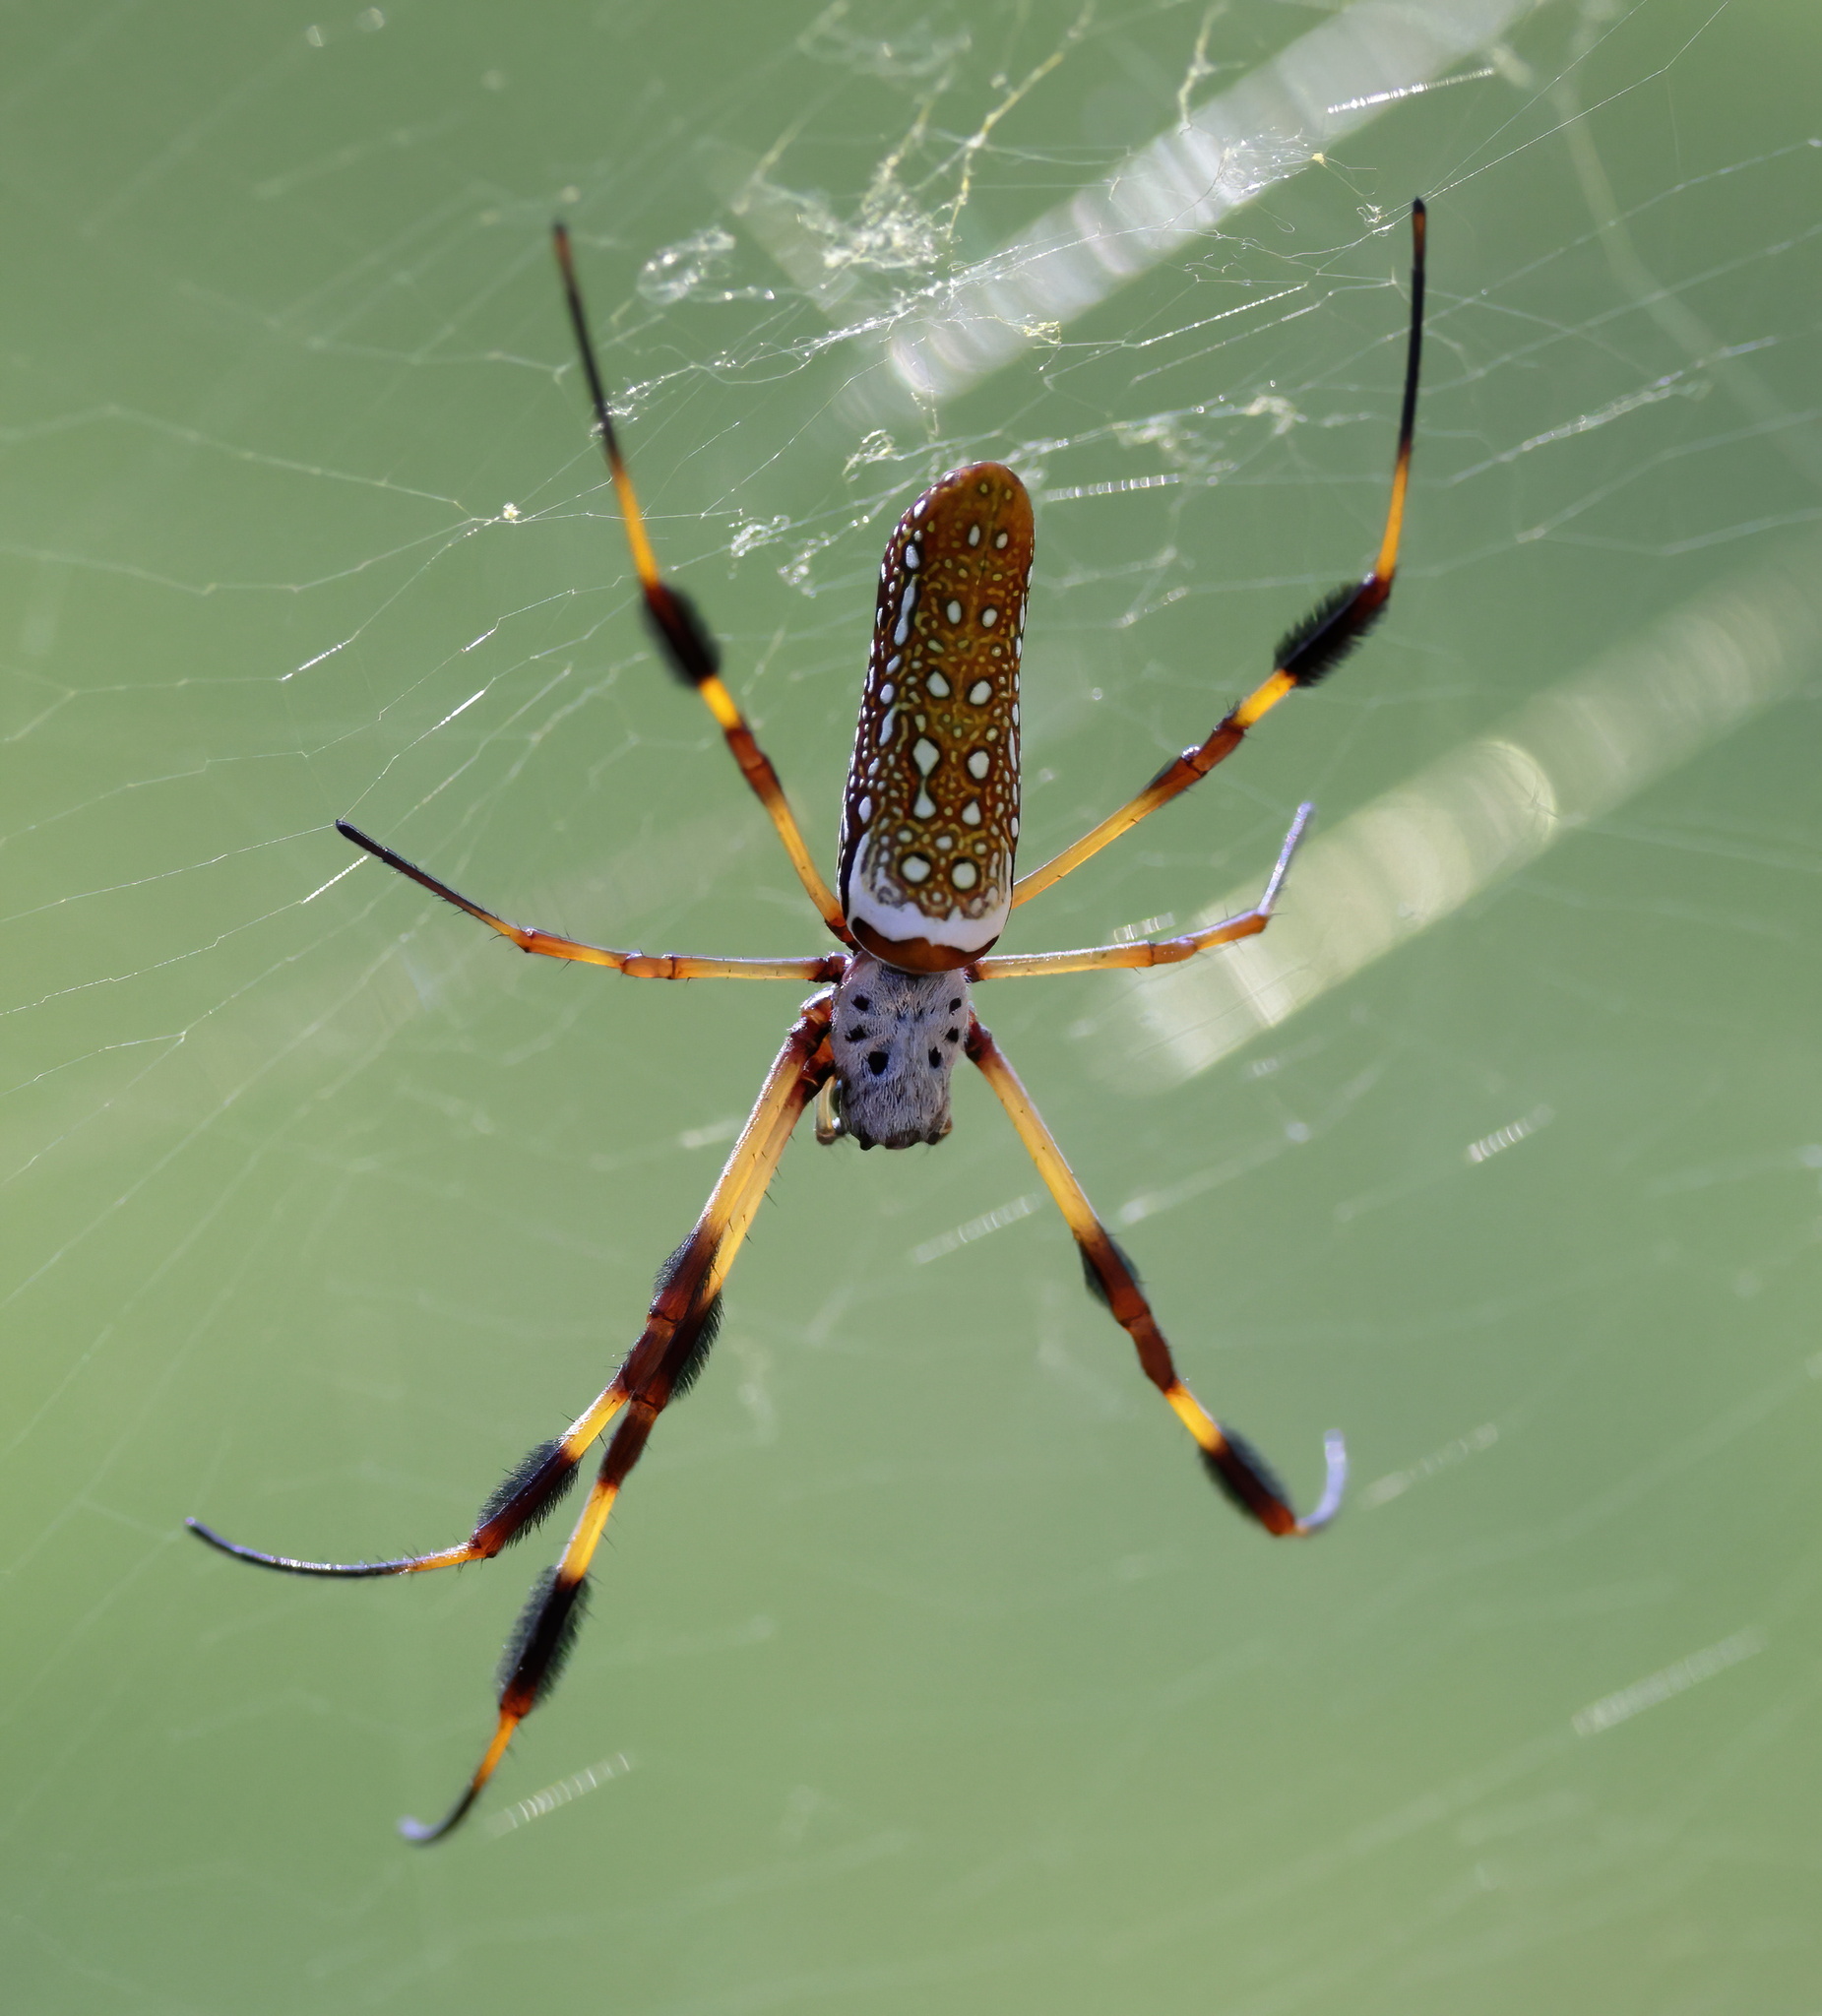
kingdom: Animalia
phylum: Arthropoda
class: Arachnida
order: Araneae
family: Araneidae
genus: Trichonephila
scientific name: Trichonephila clavipes
